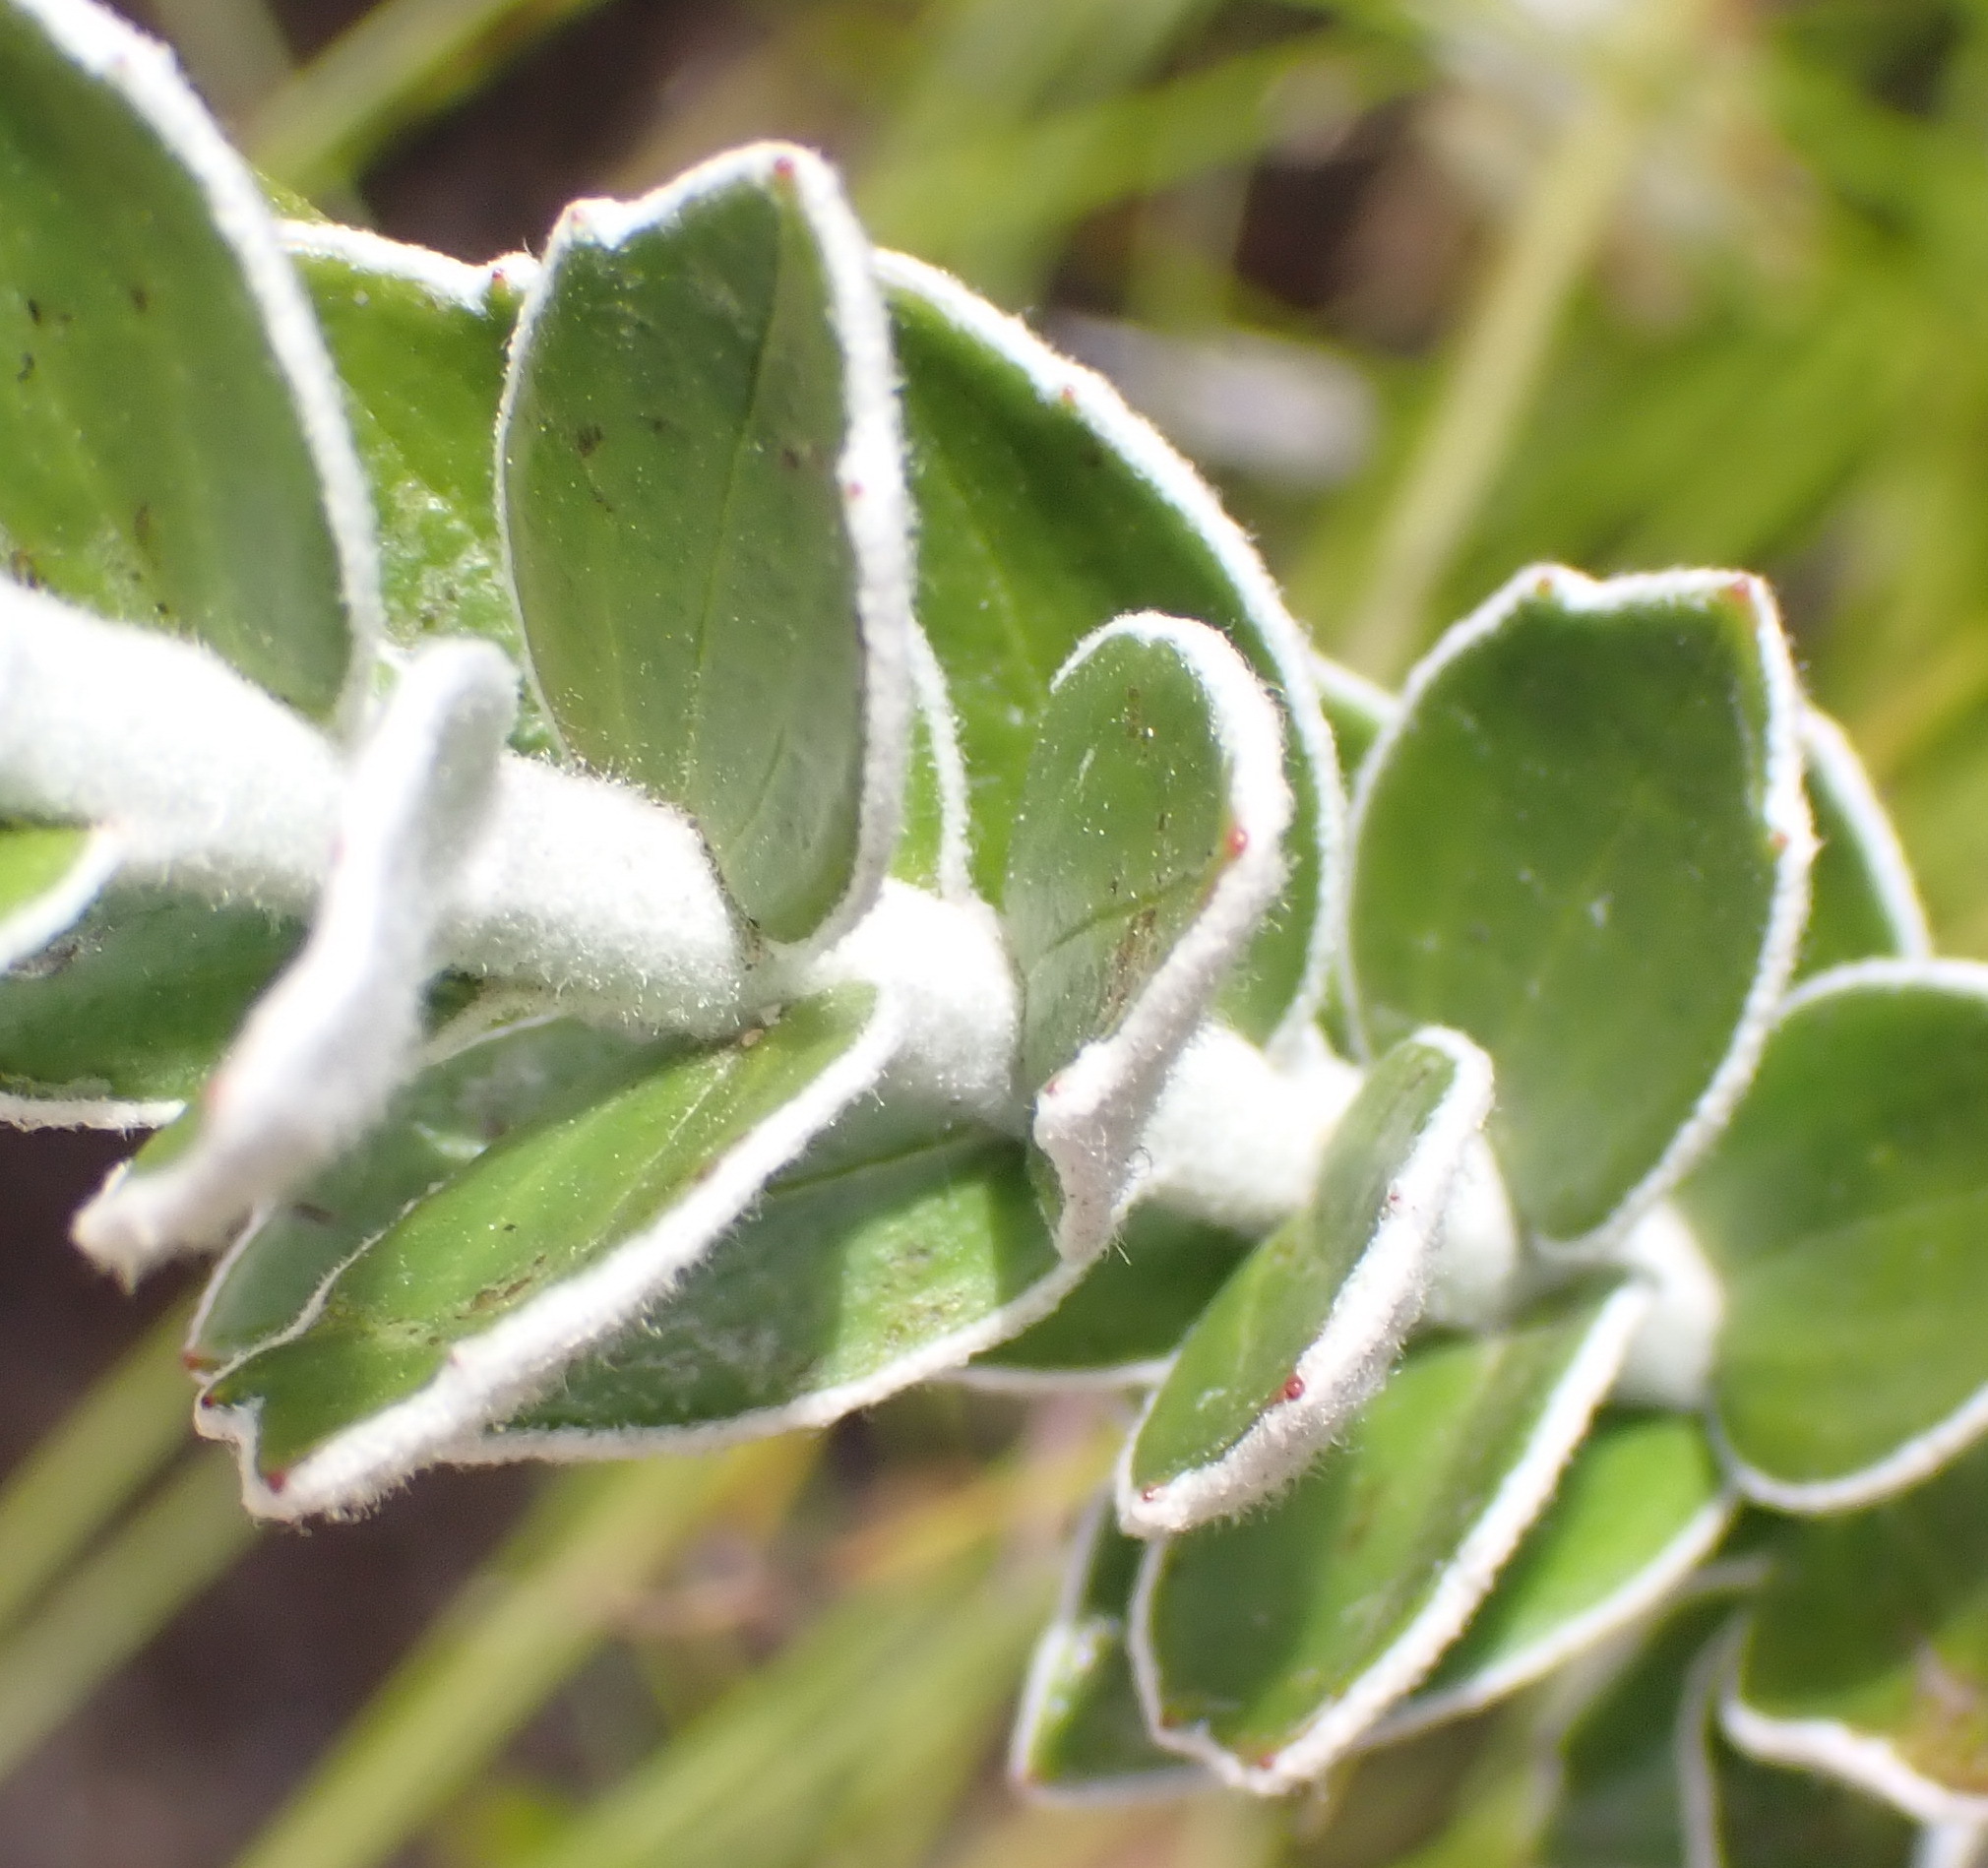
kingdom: Plantae
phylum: Tracheophyta
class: Magnoliopsida
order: Asterales
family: Asteraceae
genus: Senecio
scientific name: Senecio pauciflosculosus
